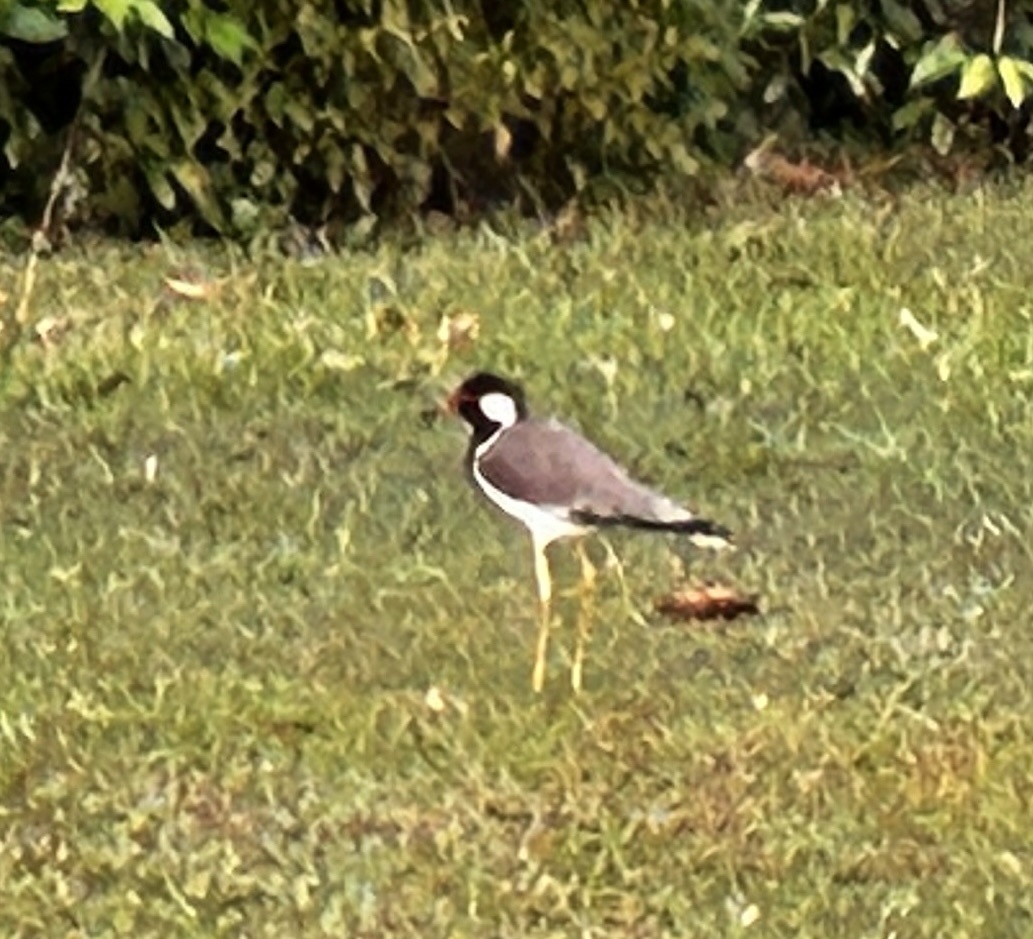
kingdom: Animalia
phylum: Chordata
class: Aves
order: Charadriiformes
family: Charadriidae
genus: Vanellus
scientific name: Vanellus indicus
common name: Red-wattled lapwing
